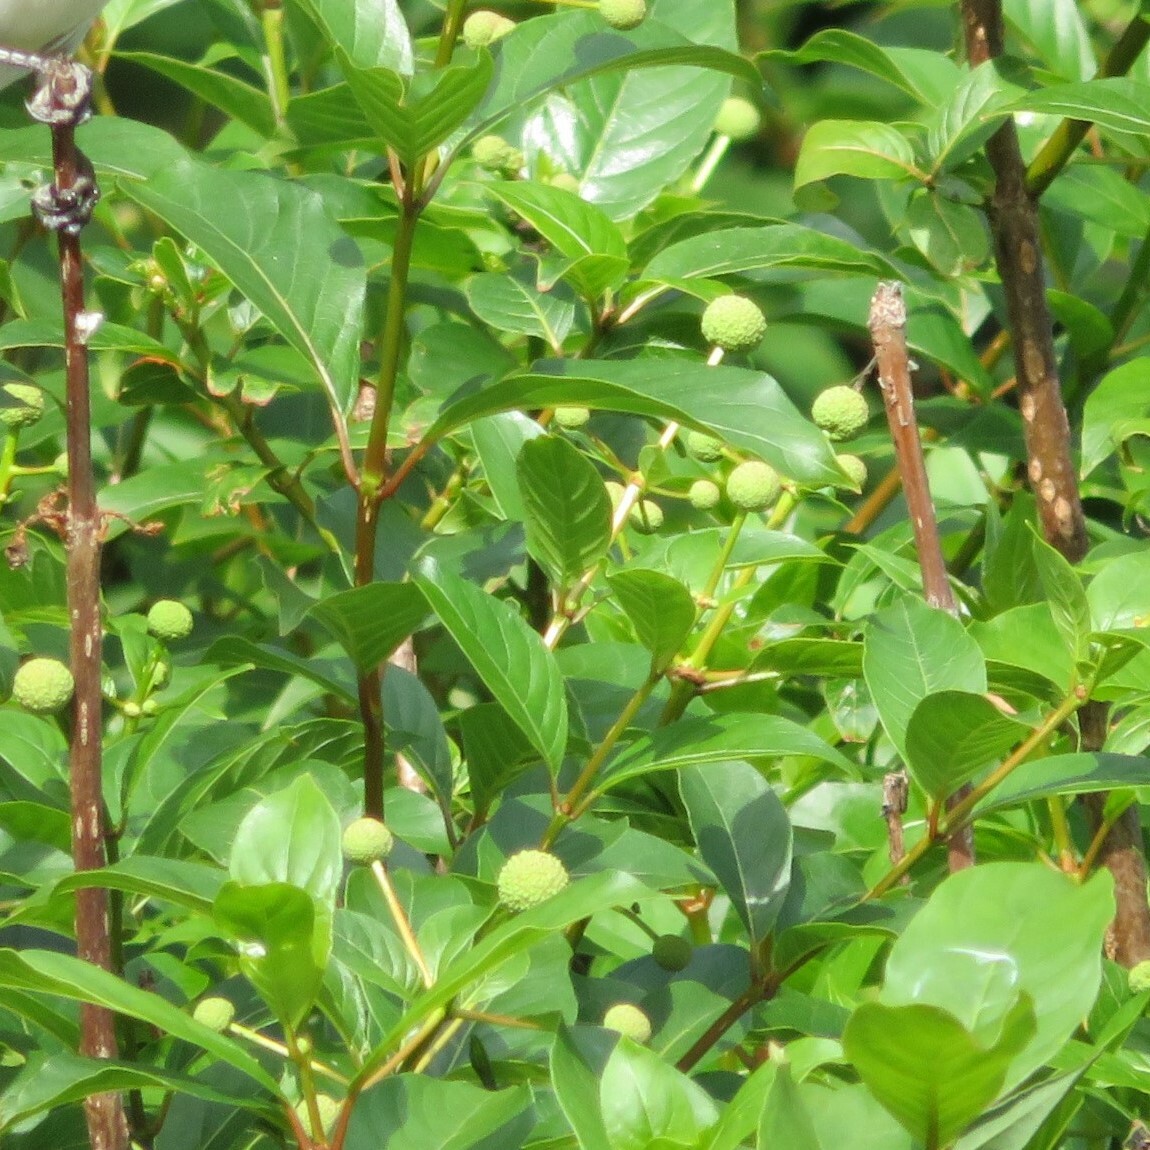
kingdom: Plantae
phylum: Tracheophyta
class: Magnoliopsida
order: Gentianales
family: Rubiaceae
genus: Cephalanthus
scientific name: Cephalanthus occidentalis
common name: Button-willow
